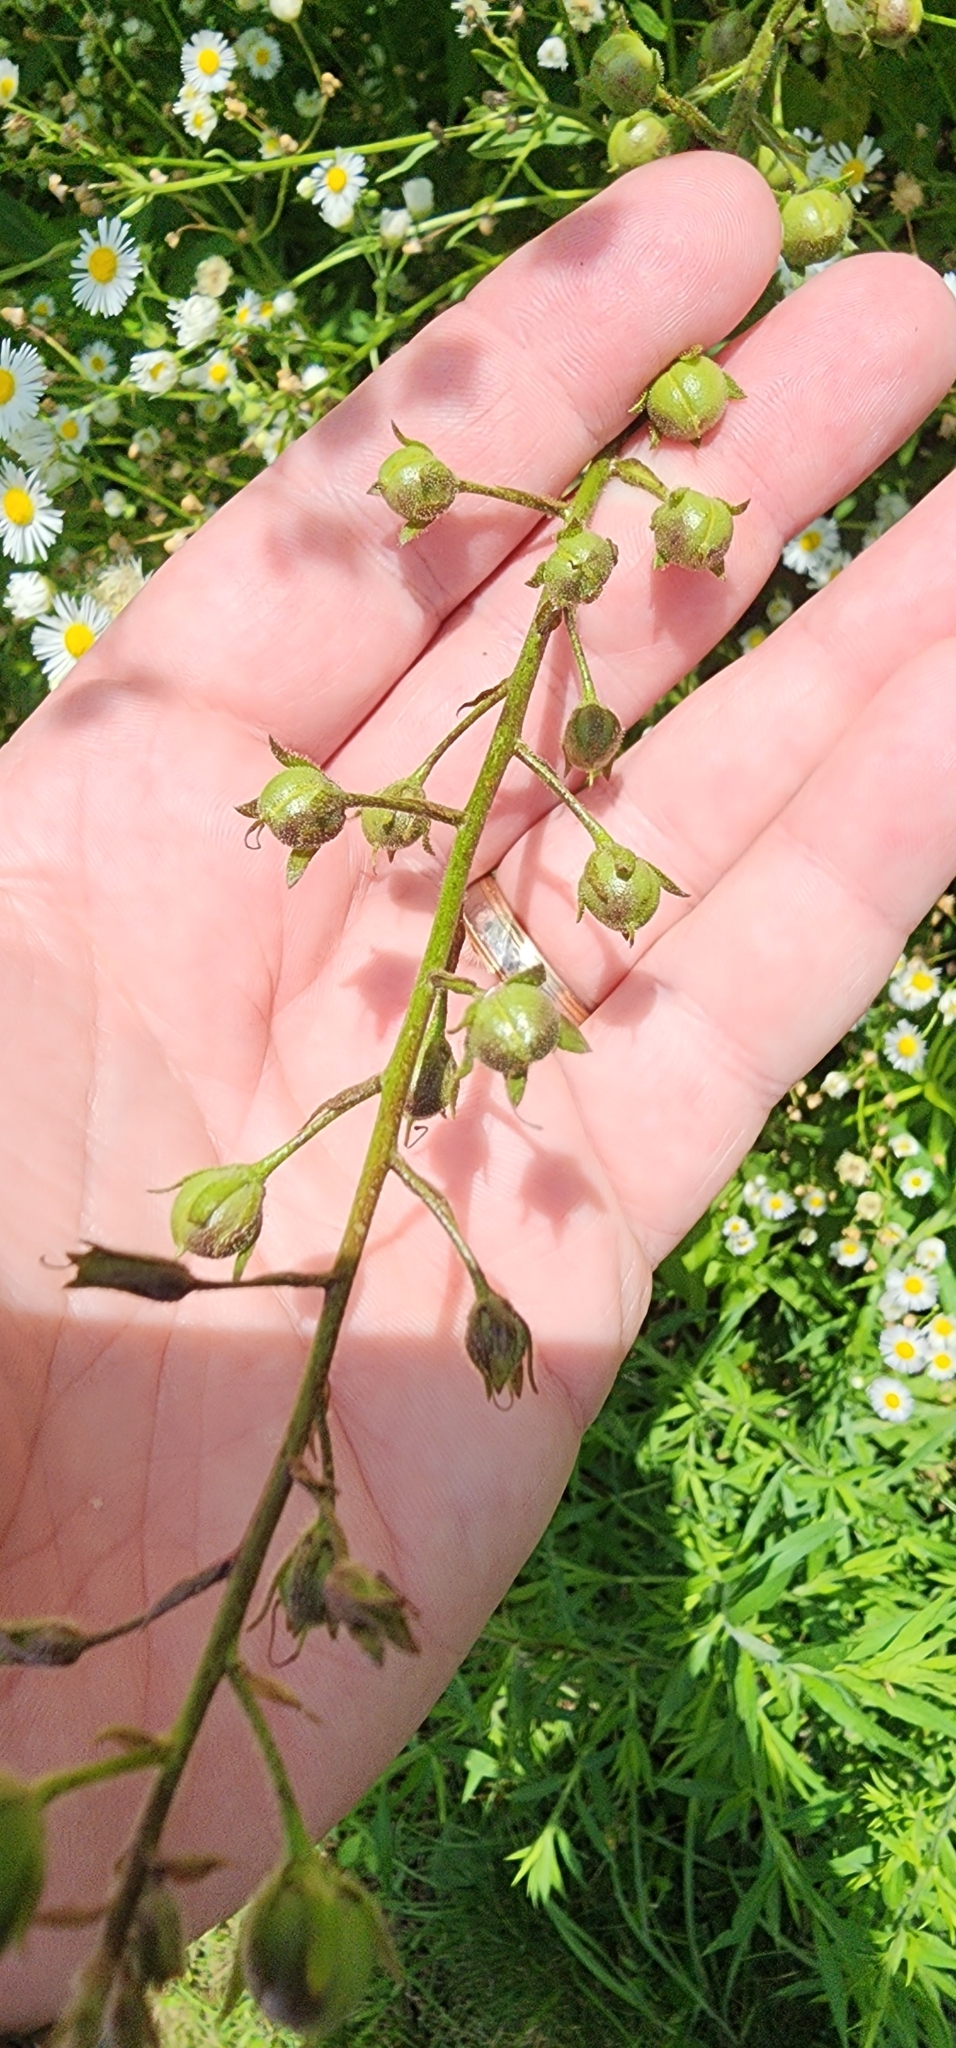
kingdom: Plantae
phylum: Tracheophyta
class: Magnoliopsida
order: Lamiales
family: Scrophulariaceae
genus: Verbascum
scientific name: Verbascum blattaria
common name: Moth mullein
